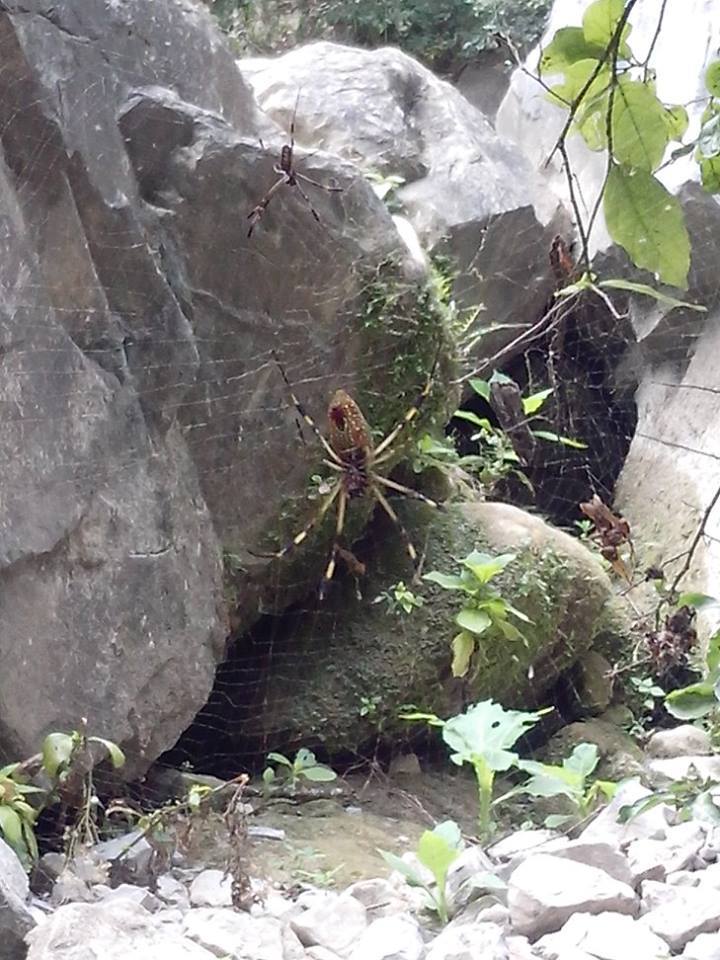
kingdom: Animalia
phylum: Arthropoda
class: Arachnida
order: Araneae
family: Araneidae
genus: Trichonephila
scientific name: Trichonephila clavipes
